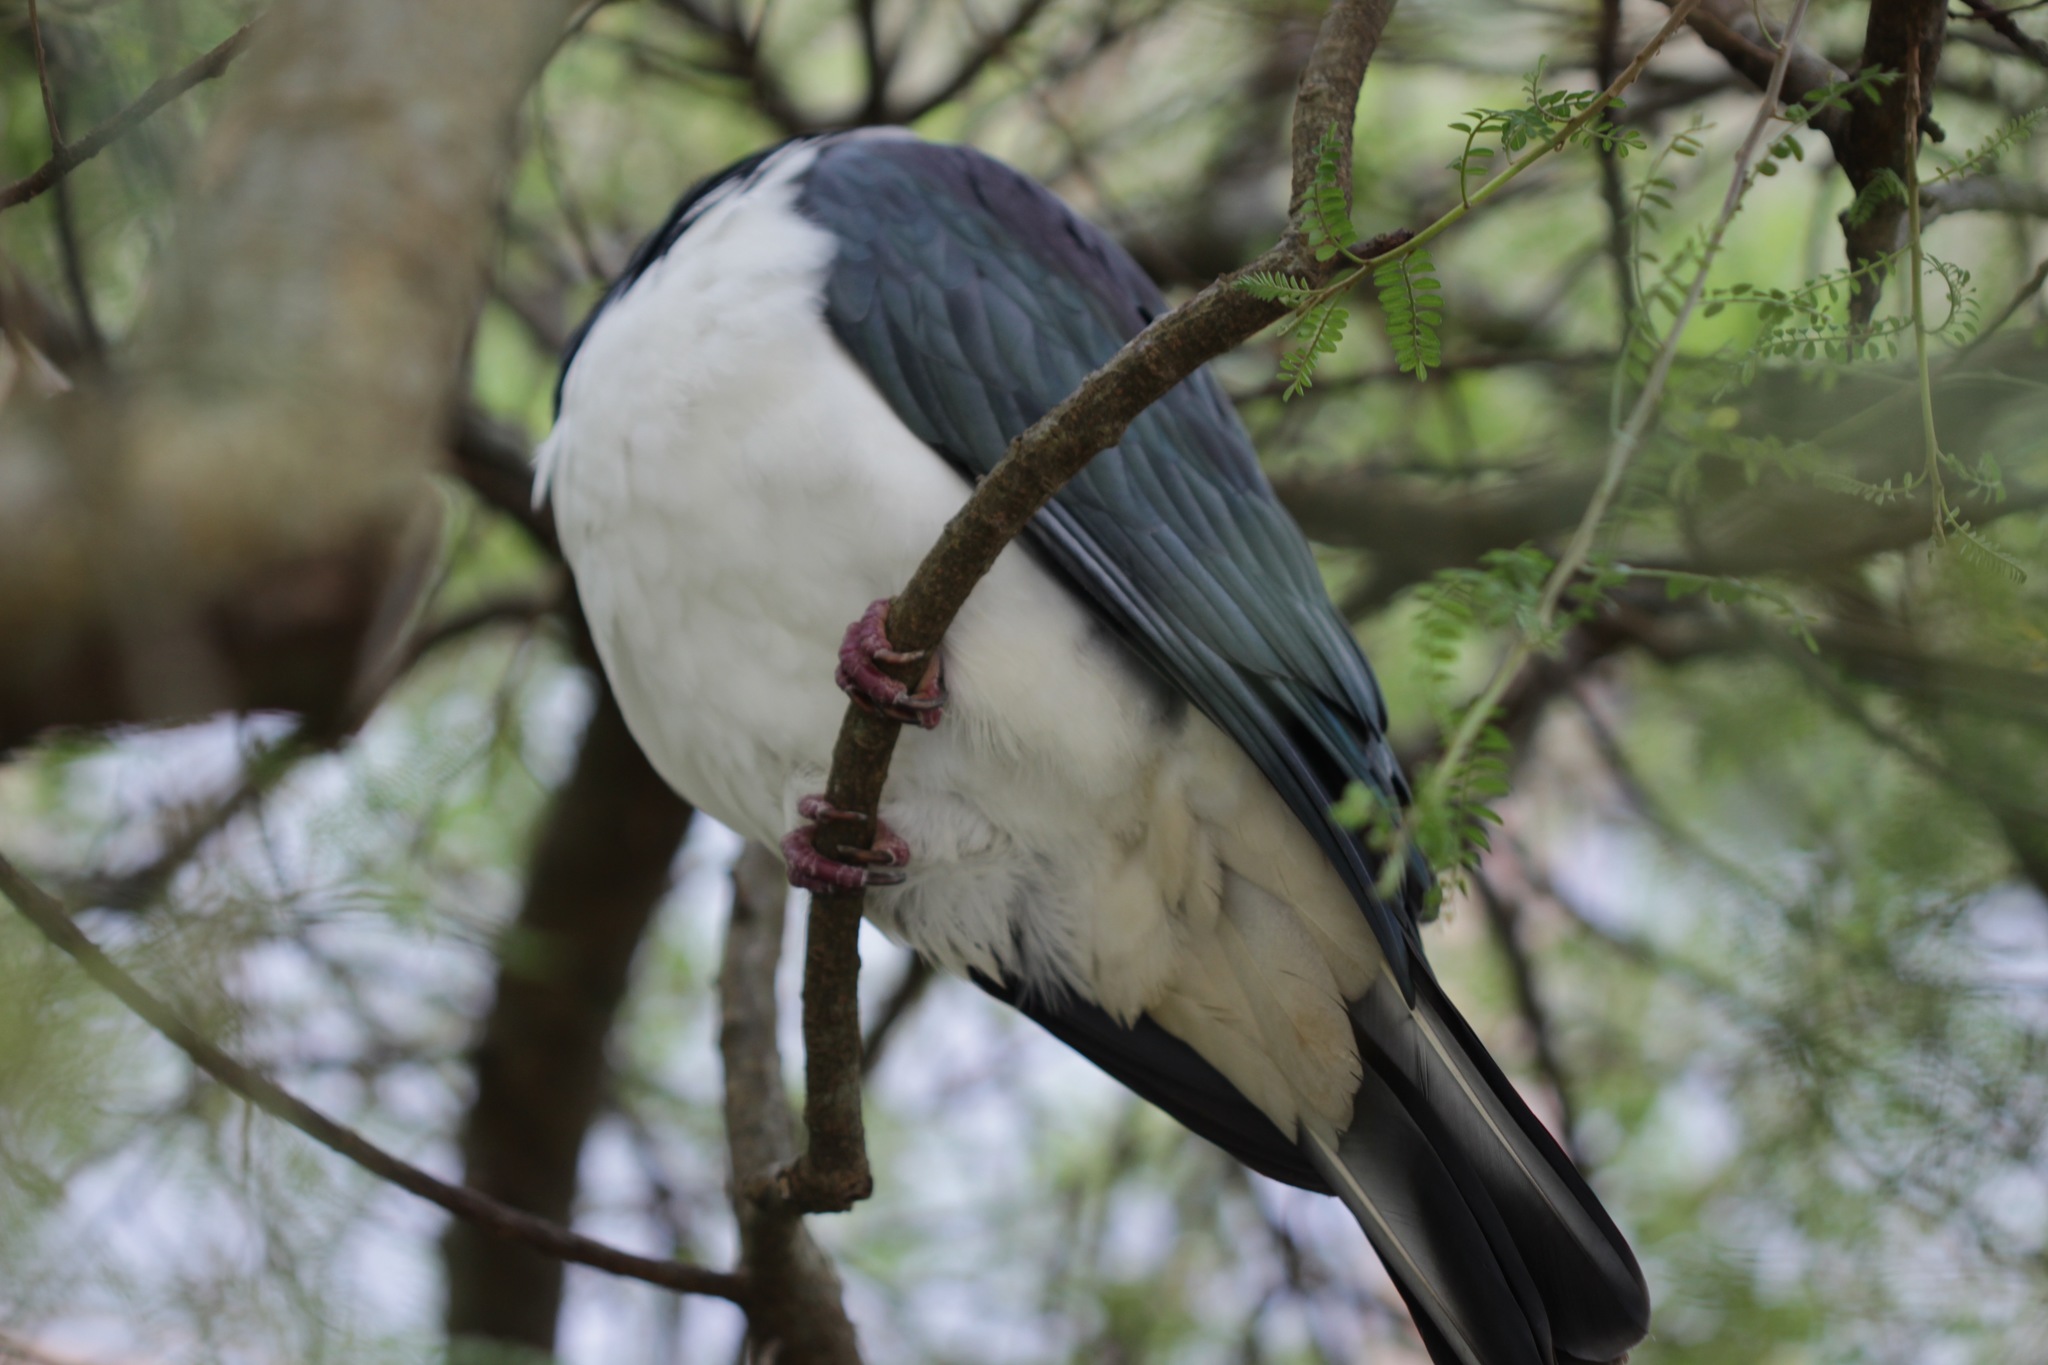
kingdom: Animalia
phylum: Chordata
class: Aves
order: Columbiformes
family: Columbidae
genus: Hemiphaga
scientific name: Hemiphaga novaeseelandiae
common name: New zealand pigeon
